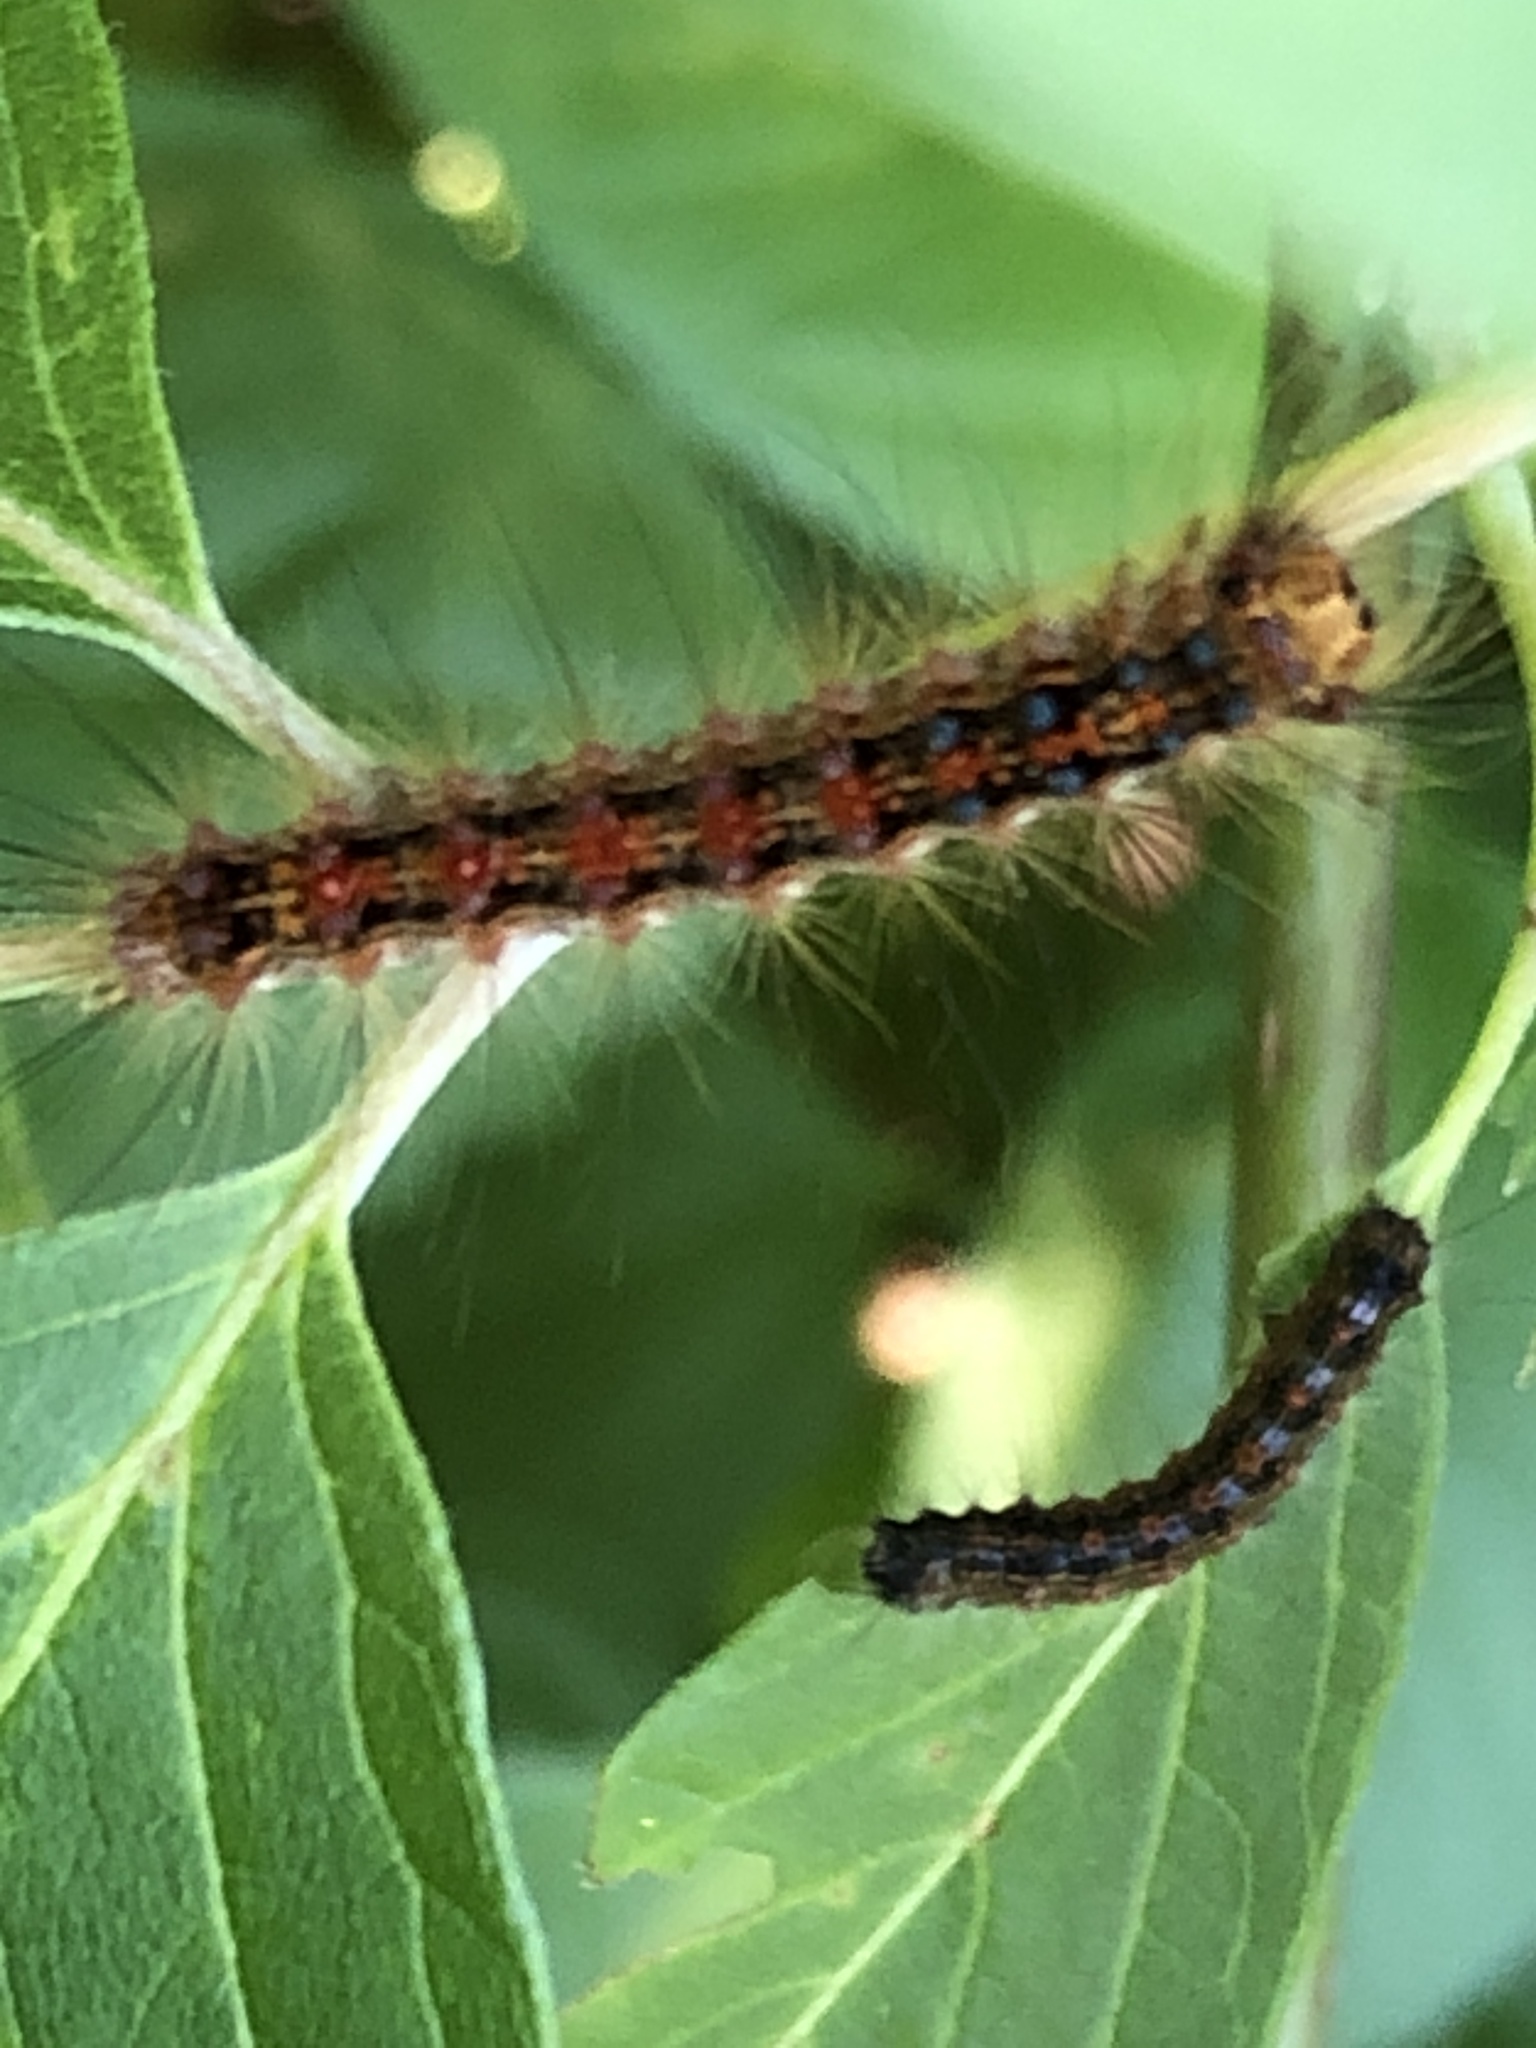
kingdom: Animalia
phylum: Arthropoda
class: Insecta
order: Lepidoptera
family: Erebidae
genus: Lymantria
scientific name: Lymantria dispar
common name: Gypsy moth
